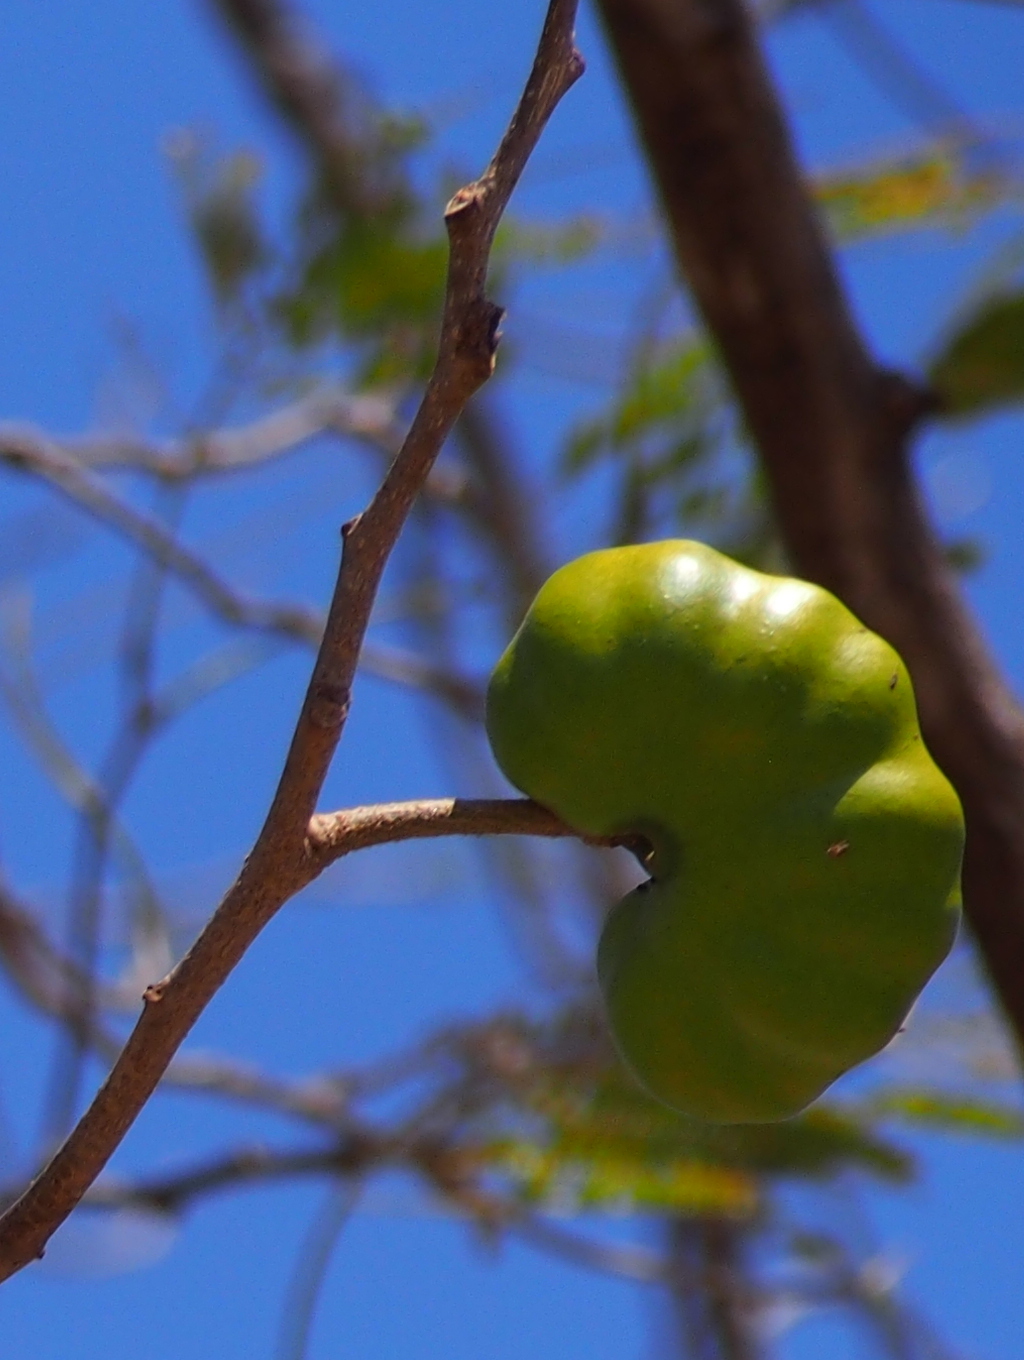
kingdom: Plantae
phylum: Tracheophyta
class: Magnoliopsida
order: Fabales
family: Fabaceae
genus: Enterolobium
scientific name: Enterolobium cyclocarpum
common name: Ear tree
